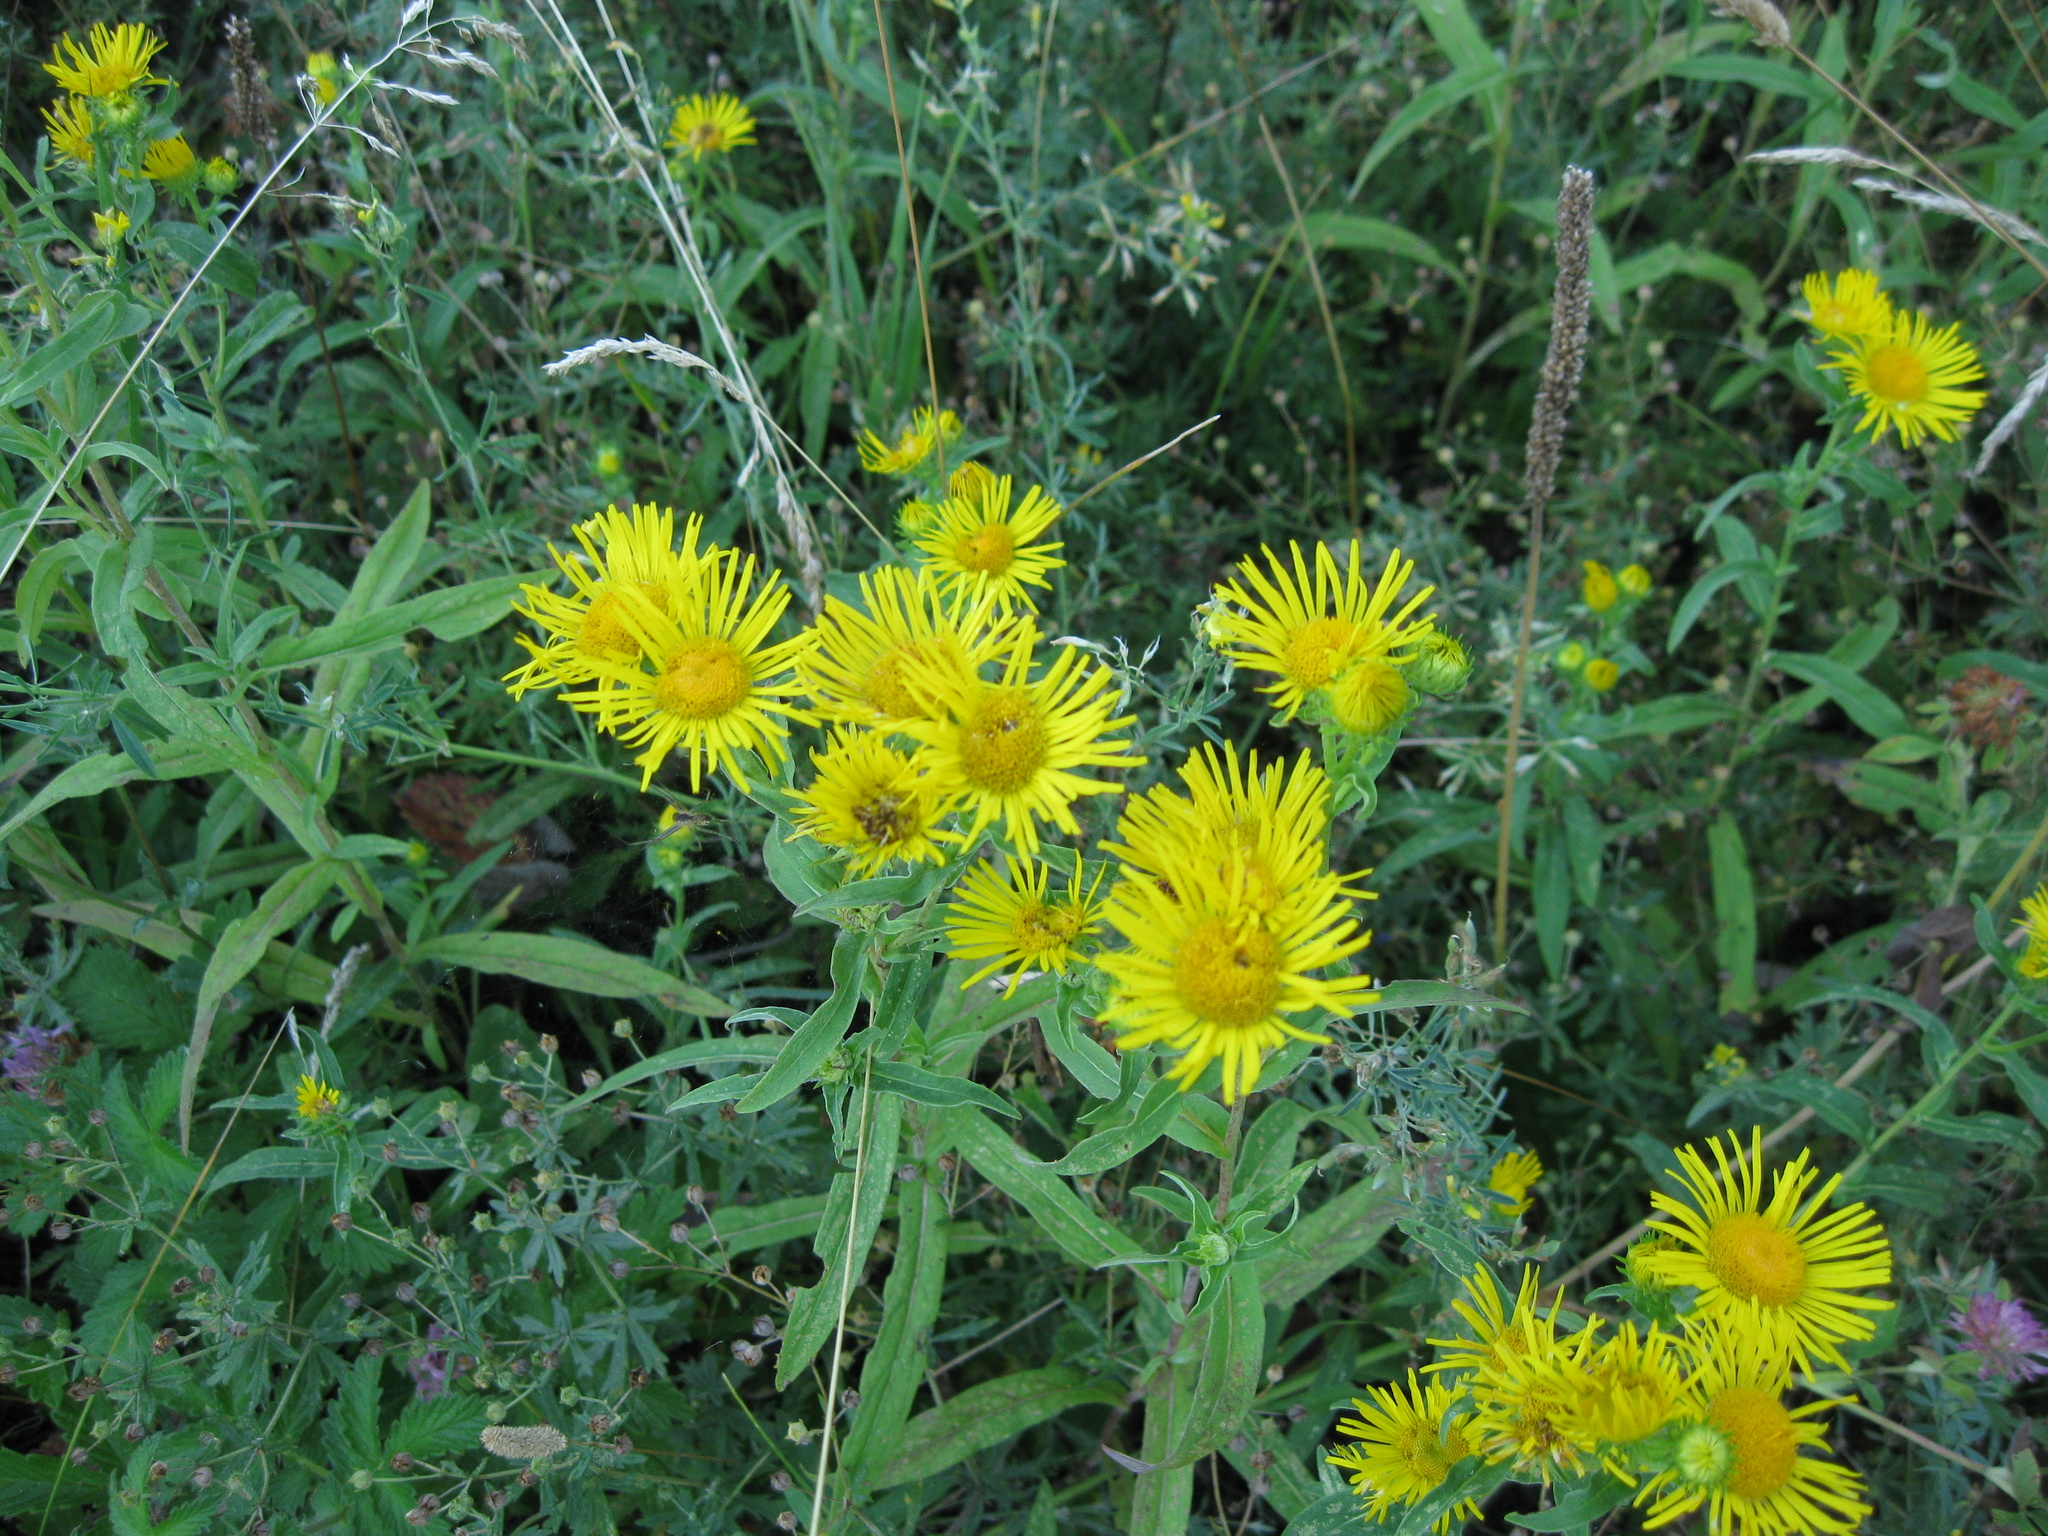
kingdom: Plantae
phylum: Tracheophyta
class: Magnoliopsida
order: Asterales
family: Asteraceae
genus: Pentanema
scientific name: Pentanema britannicum
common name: British elecampane
